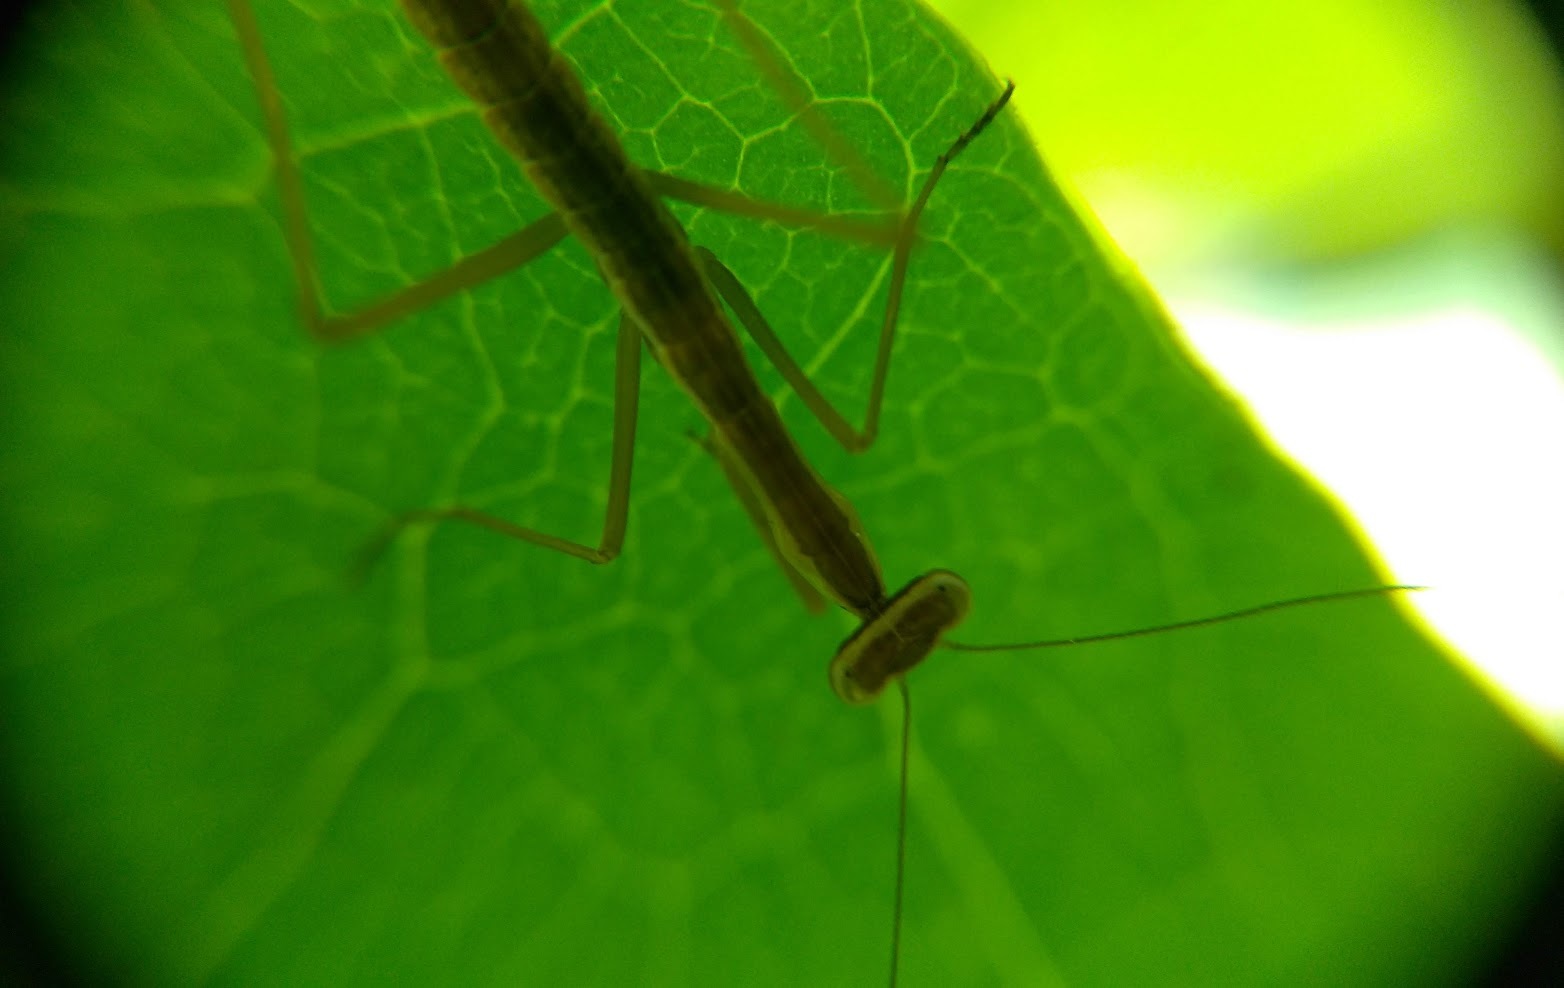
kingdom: Animalia
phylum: Arthropoda
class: Insecta
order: Mantodea
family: Mantidae
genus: Tenodera
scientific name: Tenodera sinensis
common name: Chinese mantis
